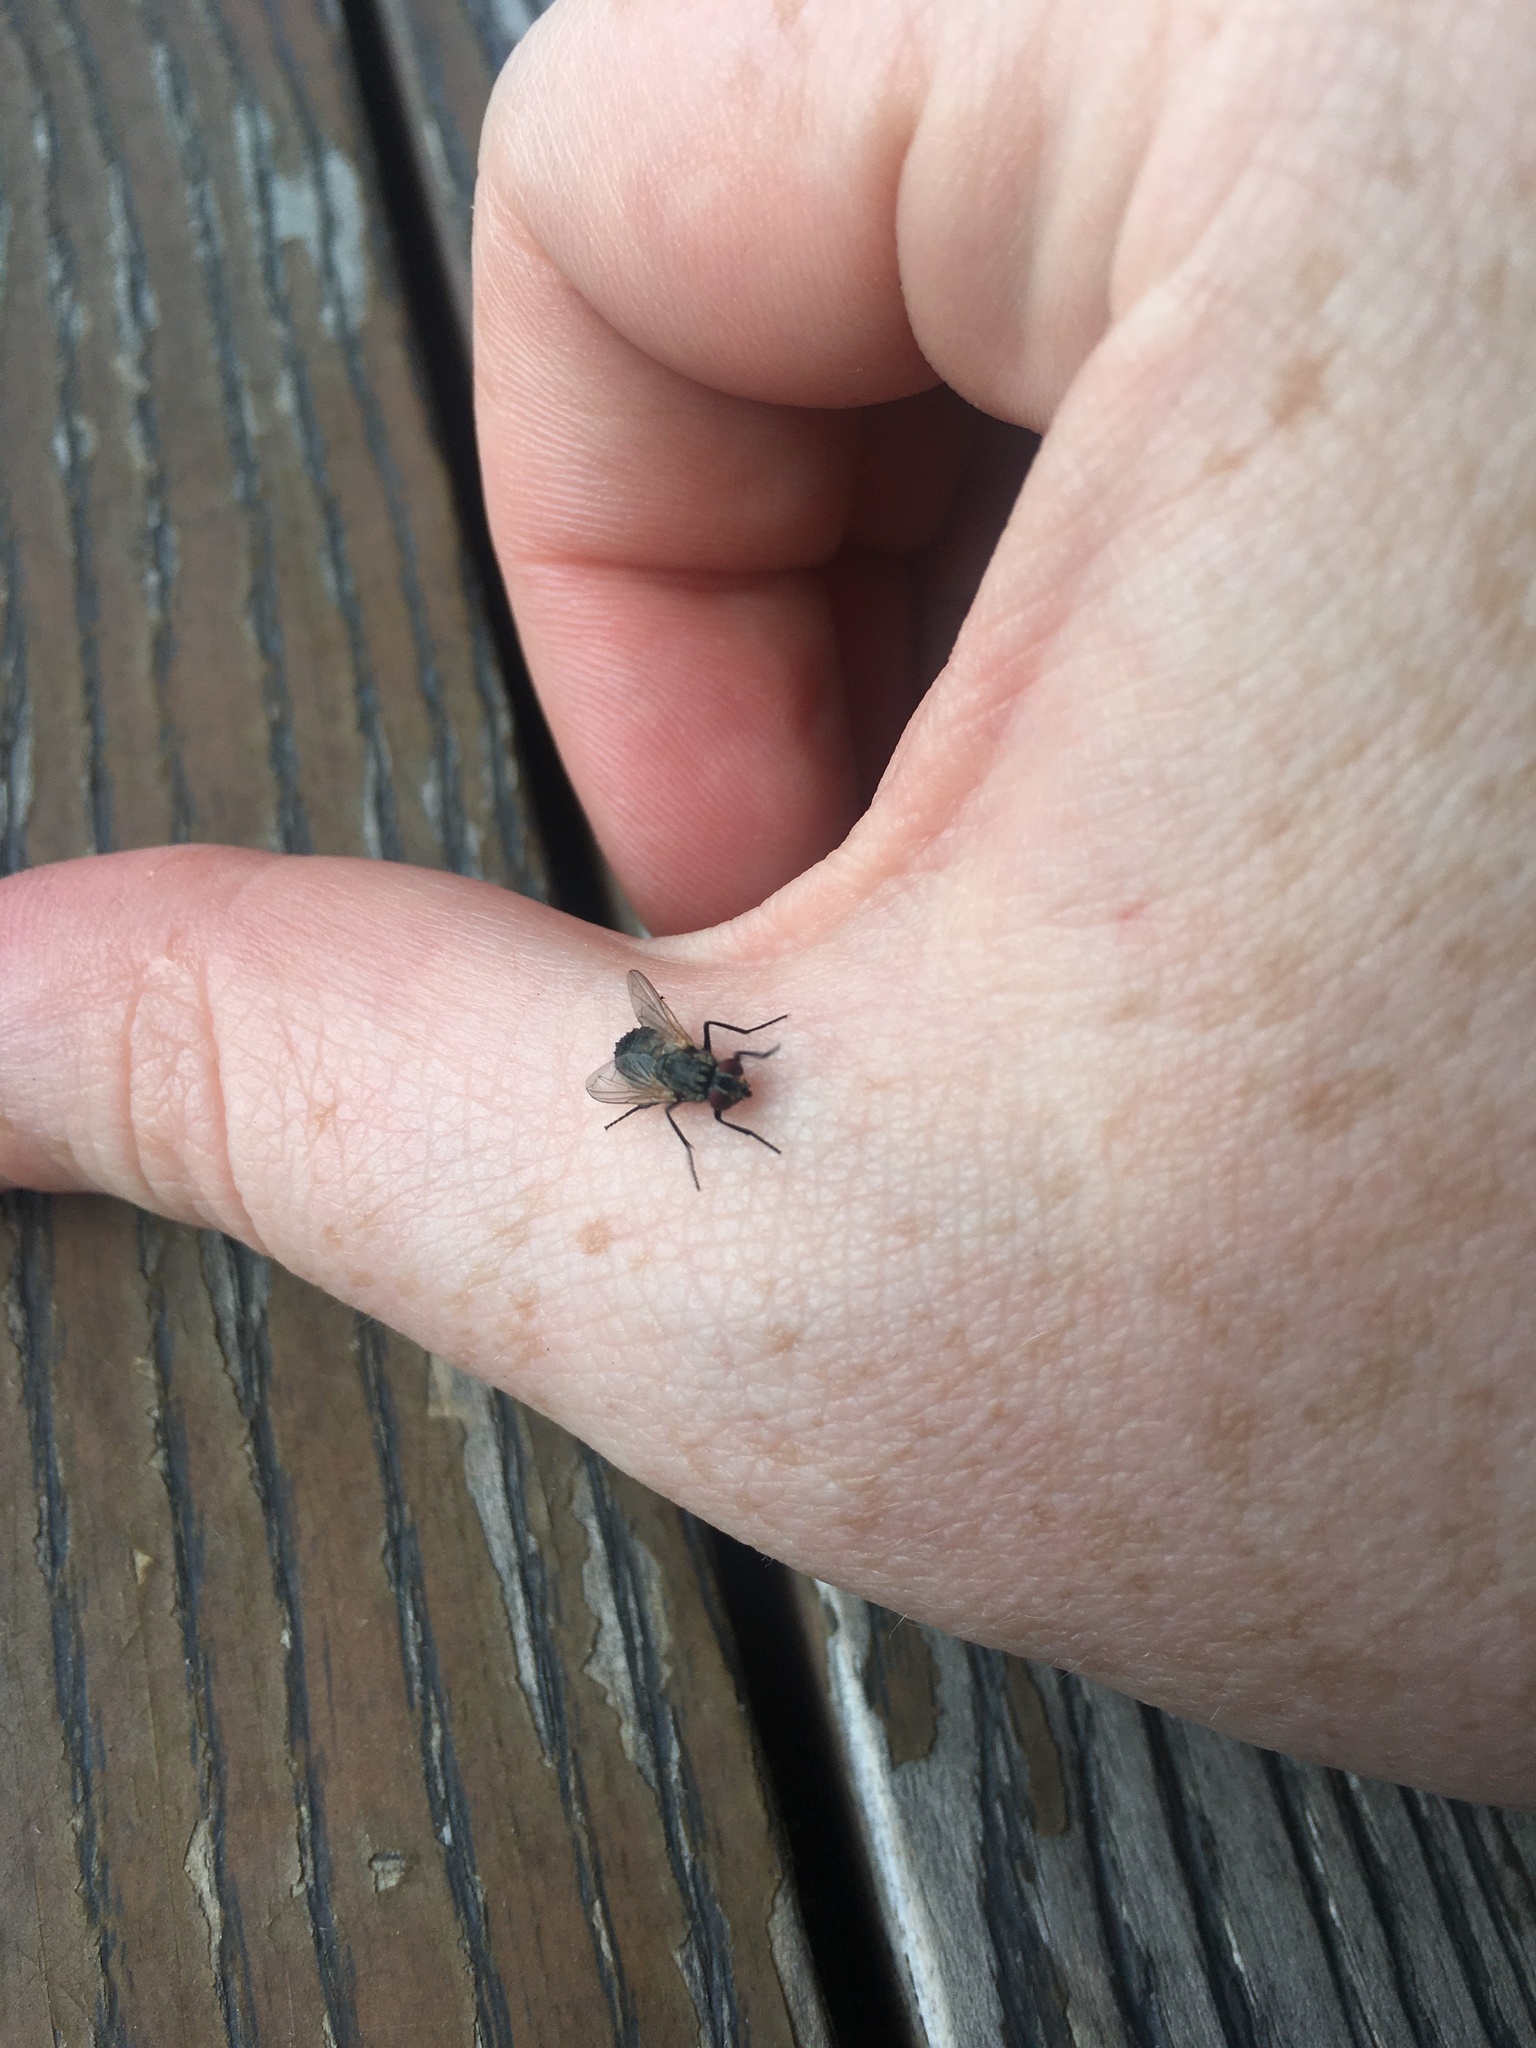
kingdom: Animalia
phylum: Arthropoda
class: Insecta
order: Diptera
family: Muscidae
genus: Musca
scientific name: Musca domestica
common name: House fly
